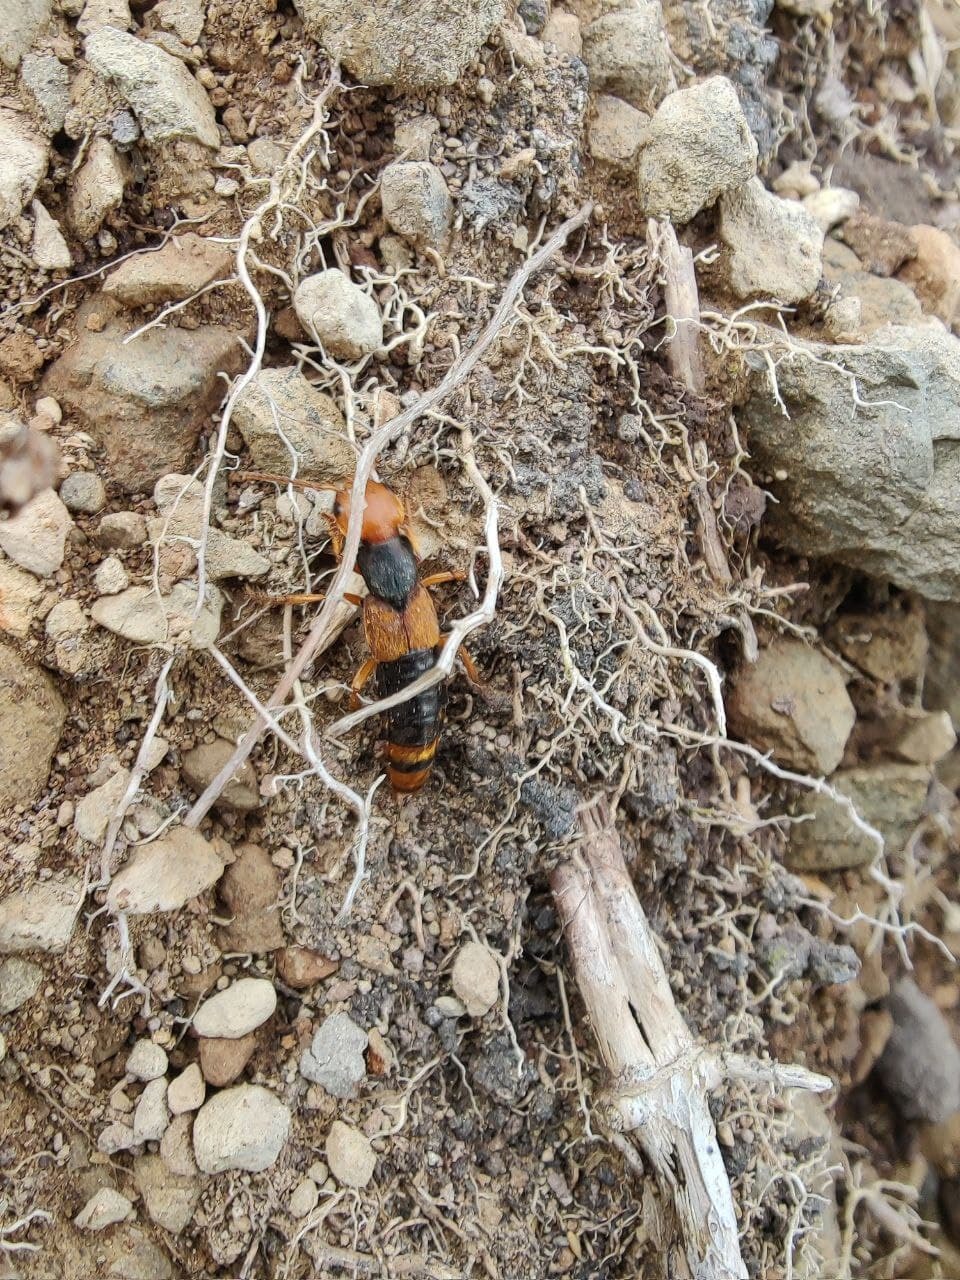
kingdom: Animalia
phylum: Arthropoda
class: Insecta
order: Coleoptera
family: Staphylinidae
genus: Dinothenarus
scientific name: Dinothenarus chrysocomus
